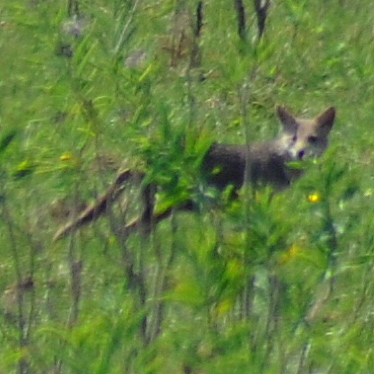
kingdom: Animalia
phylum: Chordata
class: Mammalia
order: Carnivora
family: Canidae
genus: Lycalopex
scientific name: Lycalopex gymnocercus
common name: Pampas fox
